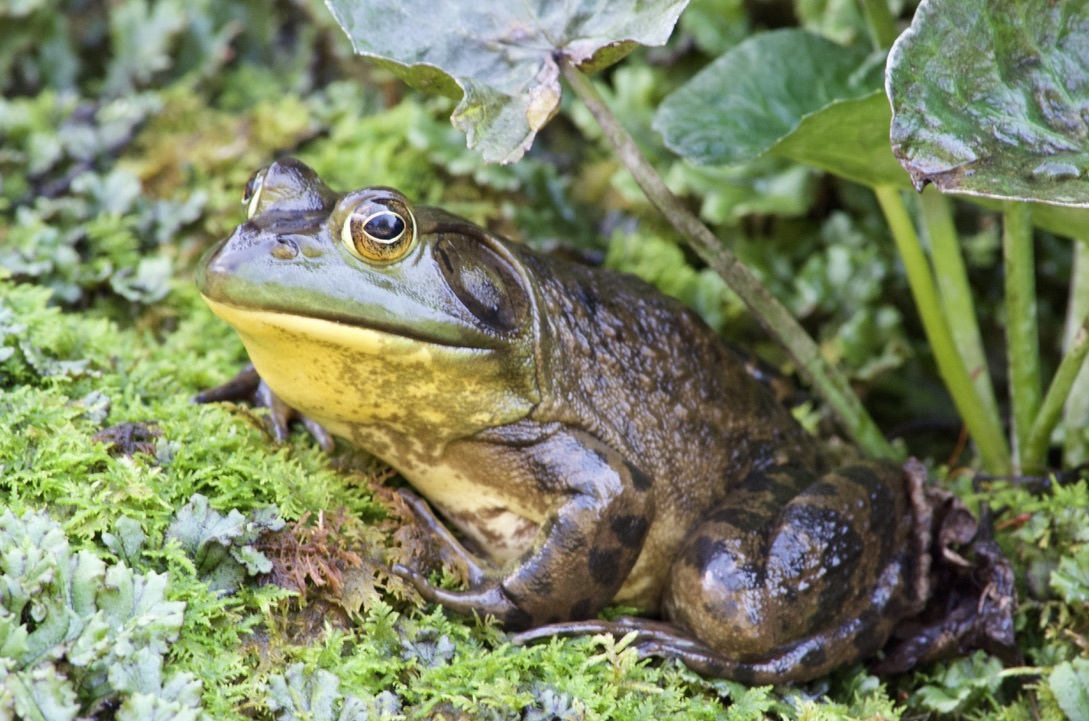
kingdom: Animalia
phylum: Chordata
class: Amphibia
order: Anura
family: Ranidae
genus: Lithobates
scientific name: Lithobates catesbeianus
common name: American bullfrog
